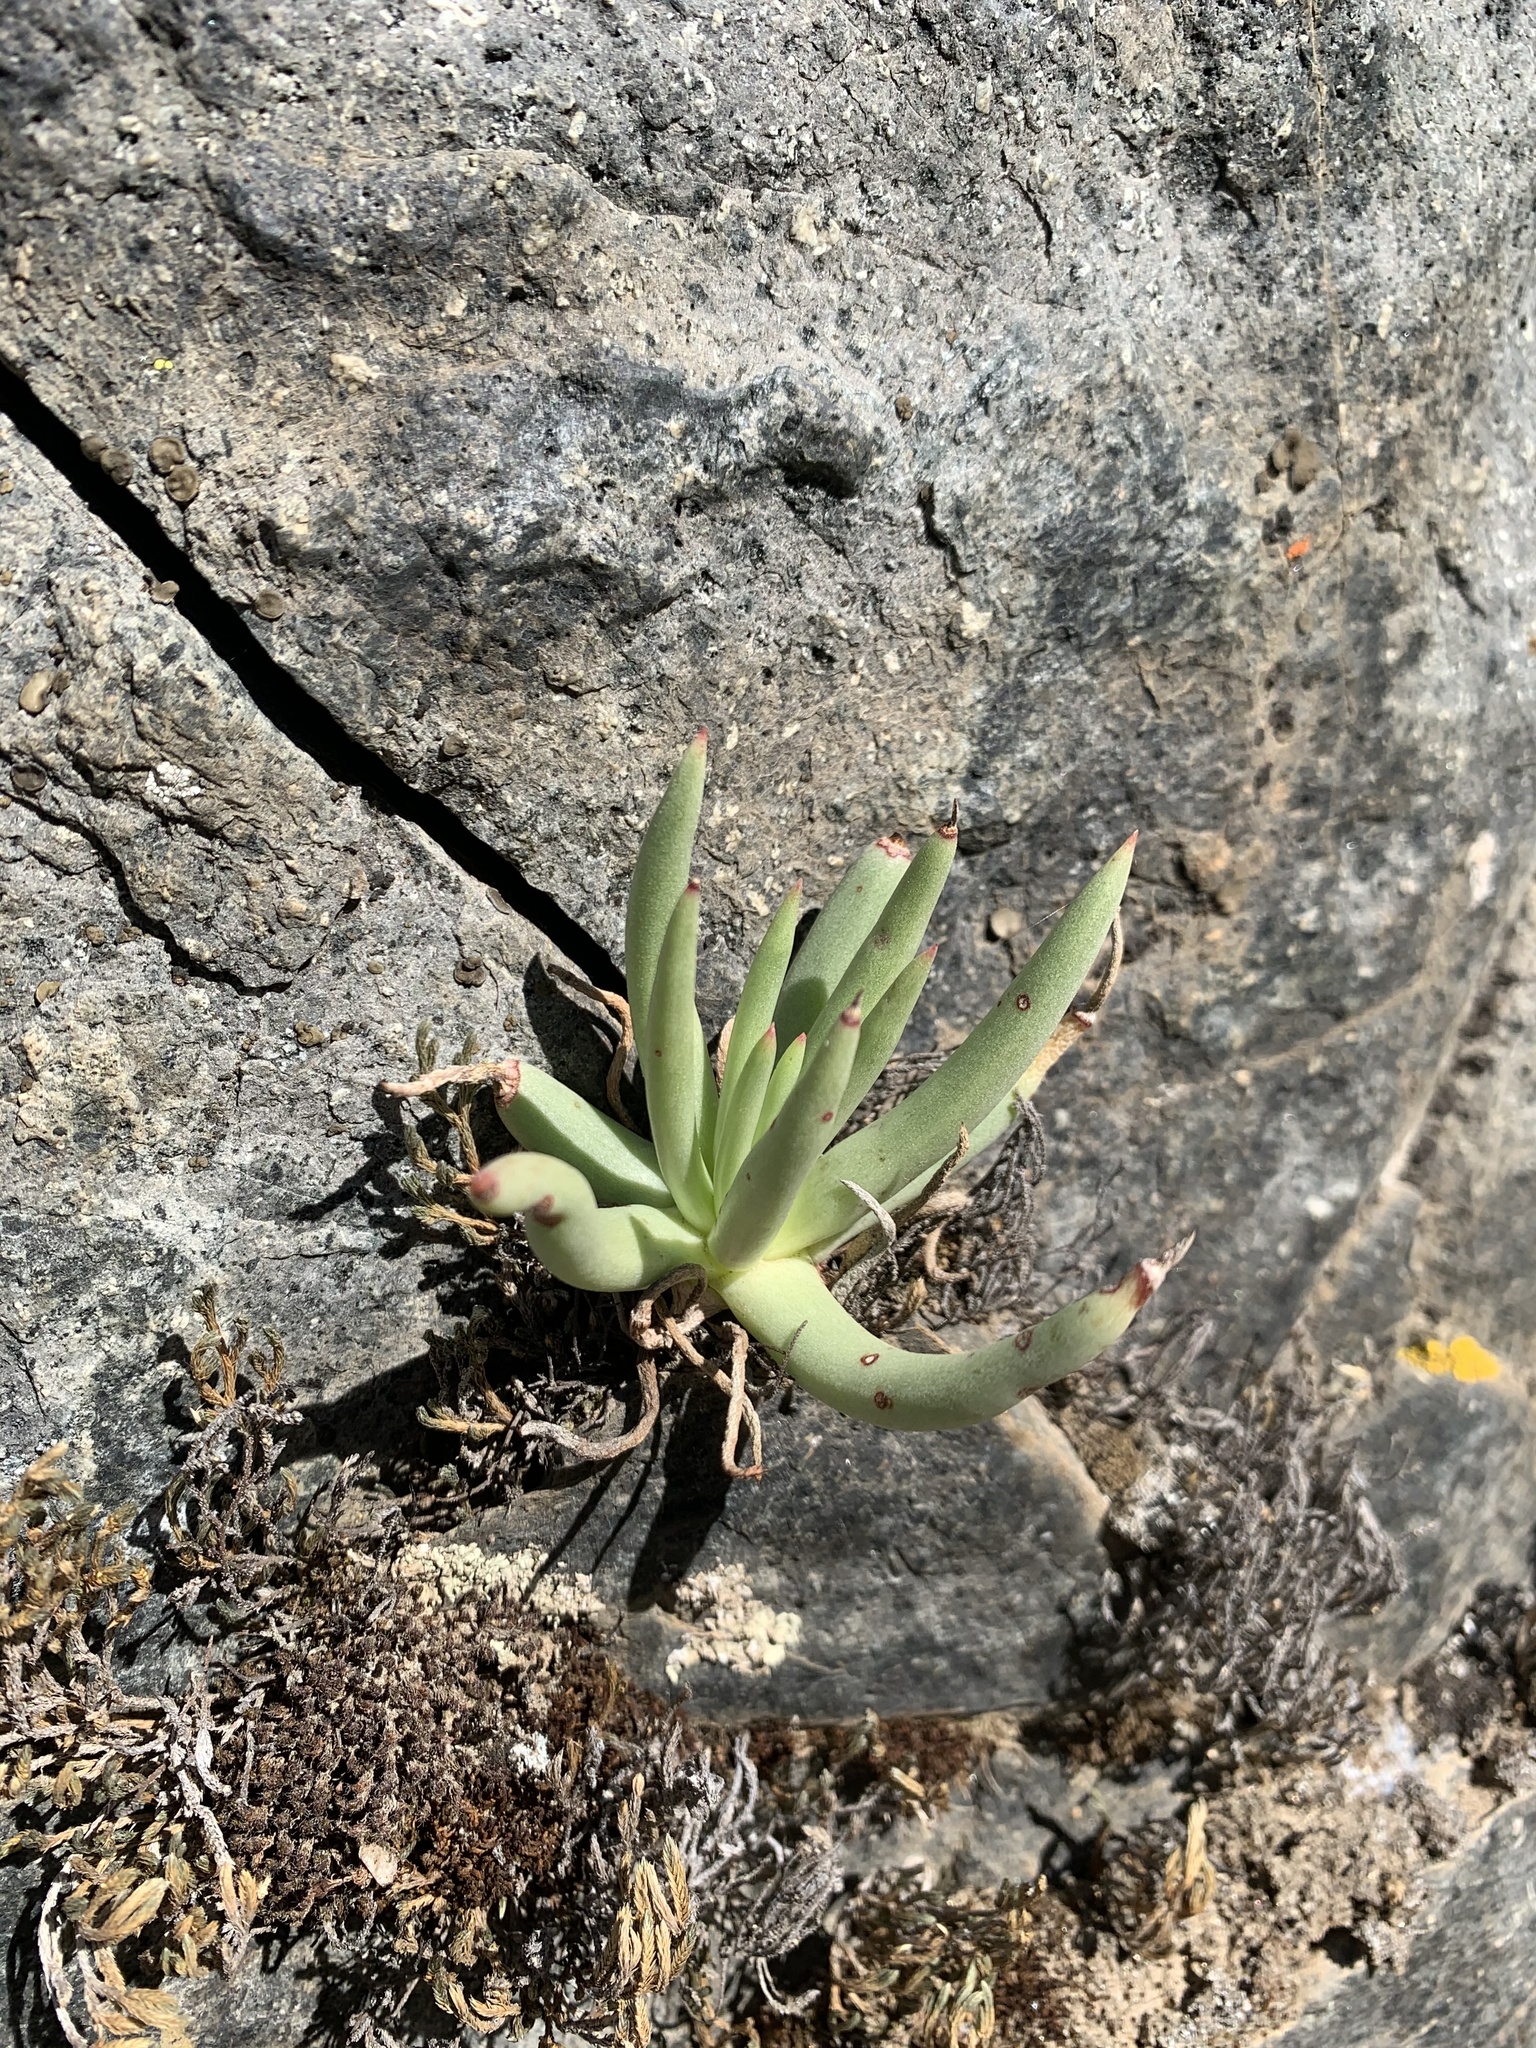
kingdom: Plantae
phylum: Tracheophyta
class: Magnoliopsida
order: Saxifragales
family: Crassulaceae
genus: Dudleya
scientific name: Dudleya edulis
